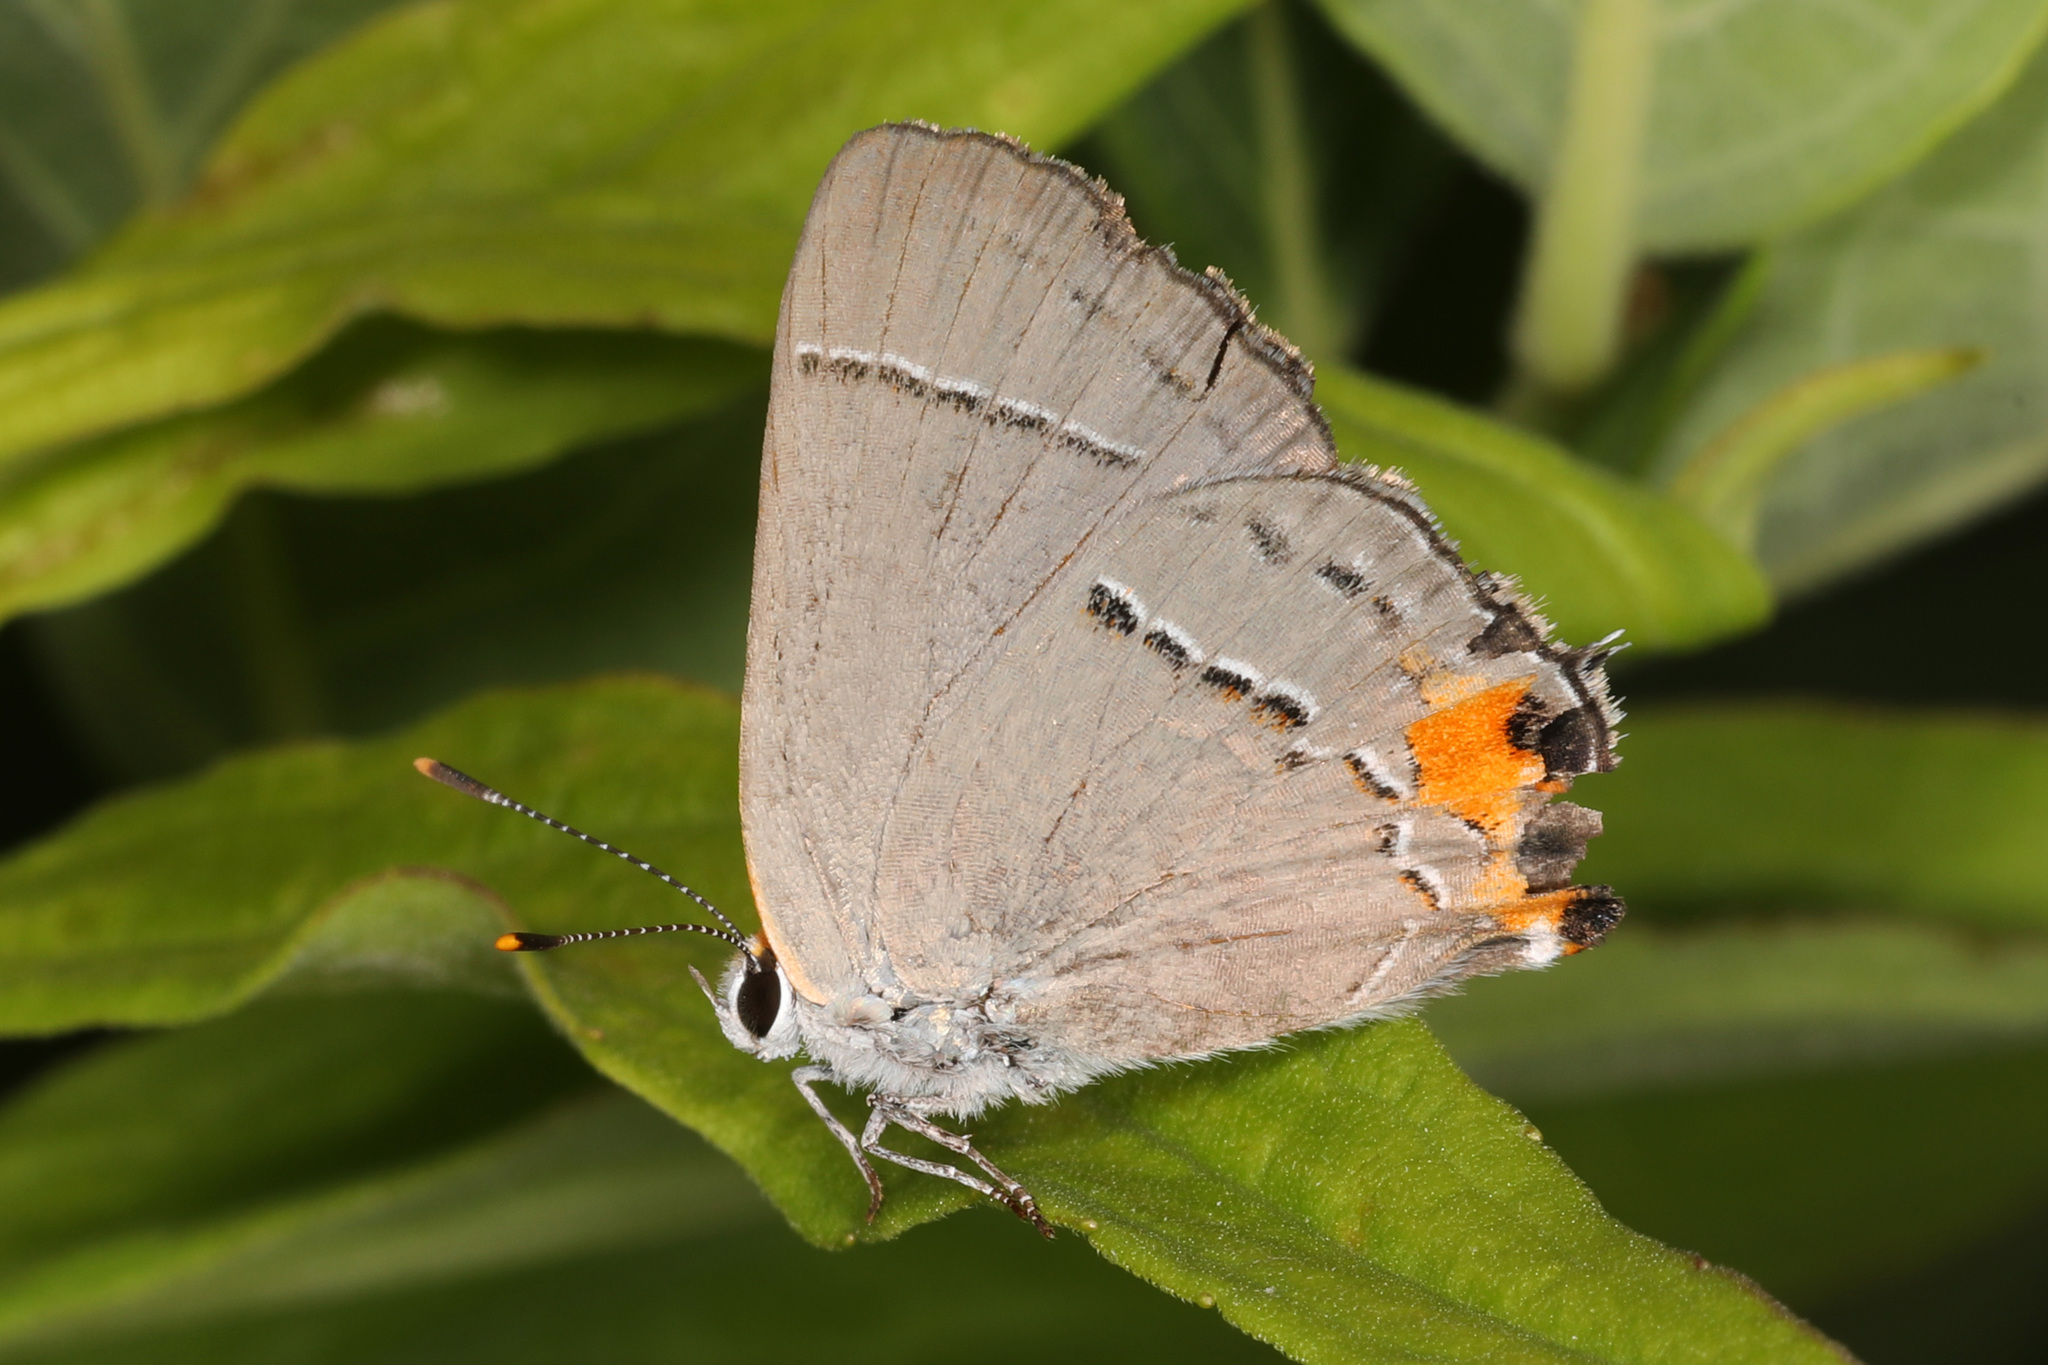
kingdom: Animalia
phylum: Arthropoda
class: Insecta
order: Lepidoptera
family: Lycaenidae
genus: Strymon
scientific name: Strymon melinus
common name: Gray hairstreak
